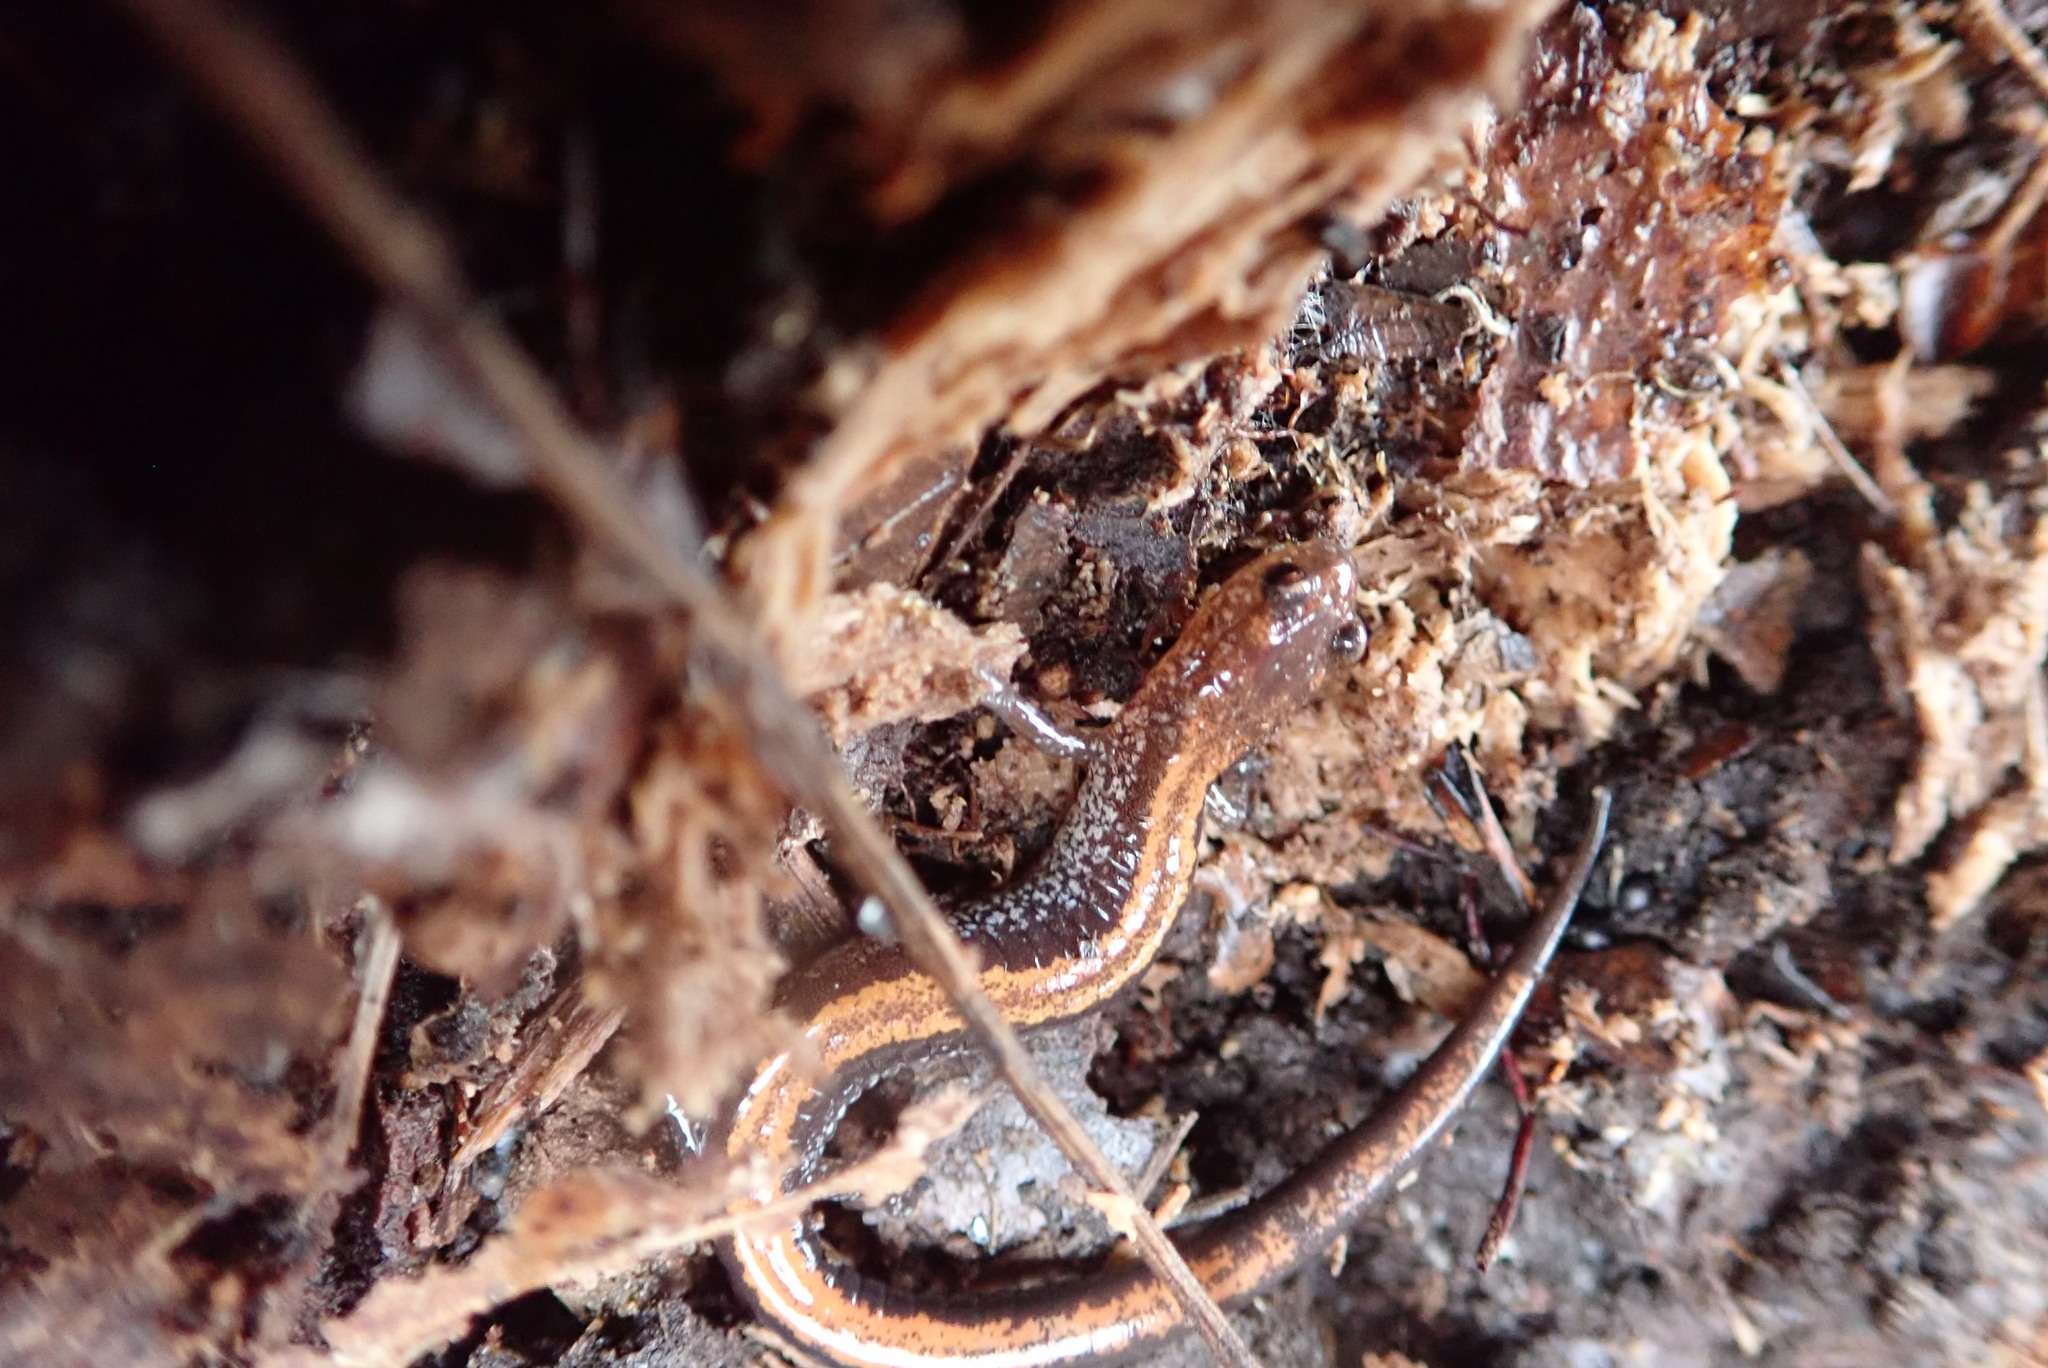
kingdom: Animalia
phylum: Chordata
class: Amphibia
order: Caudata
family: Plethodontidae
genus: Plethodon
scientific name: Plethodon cinereus
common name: Redback salamander
